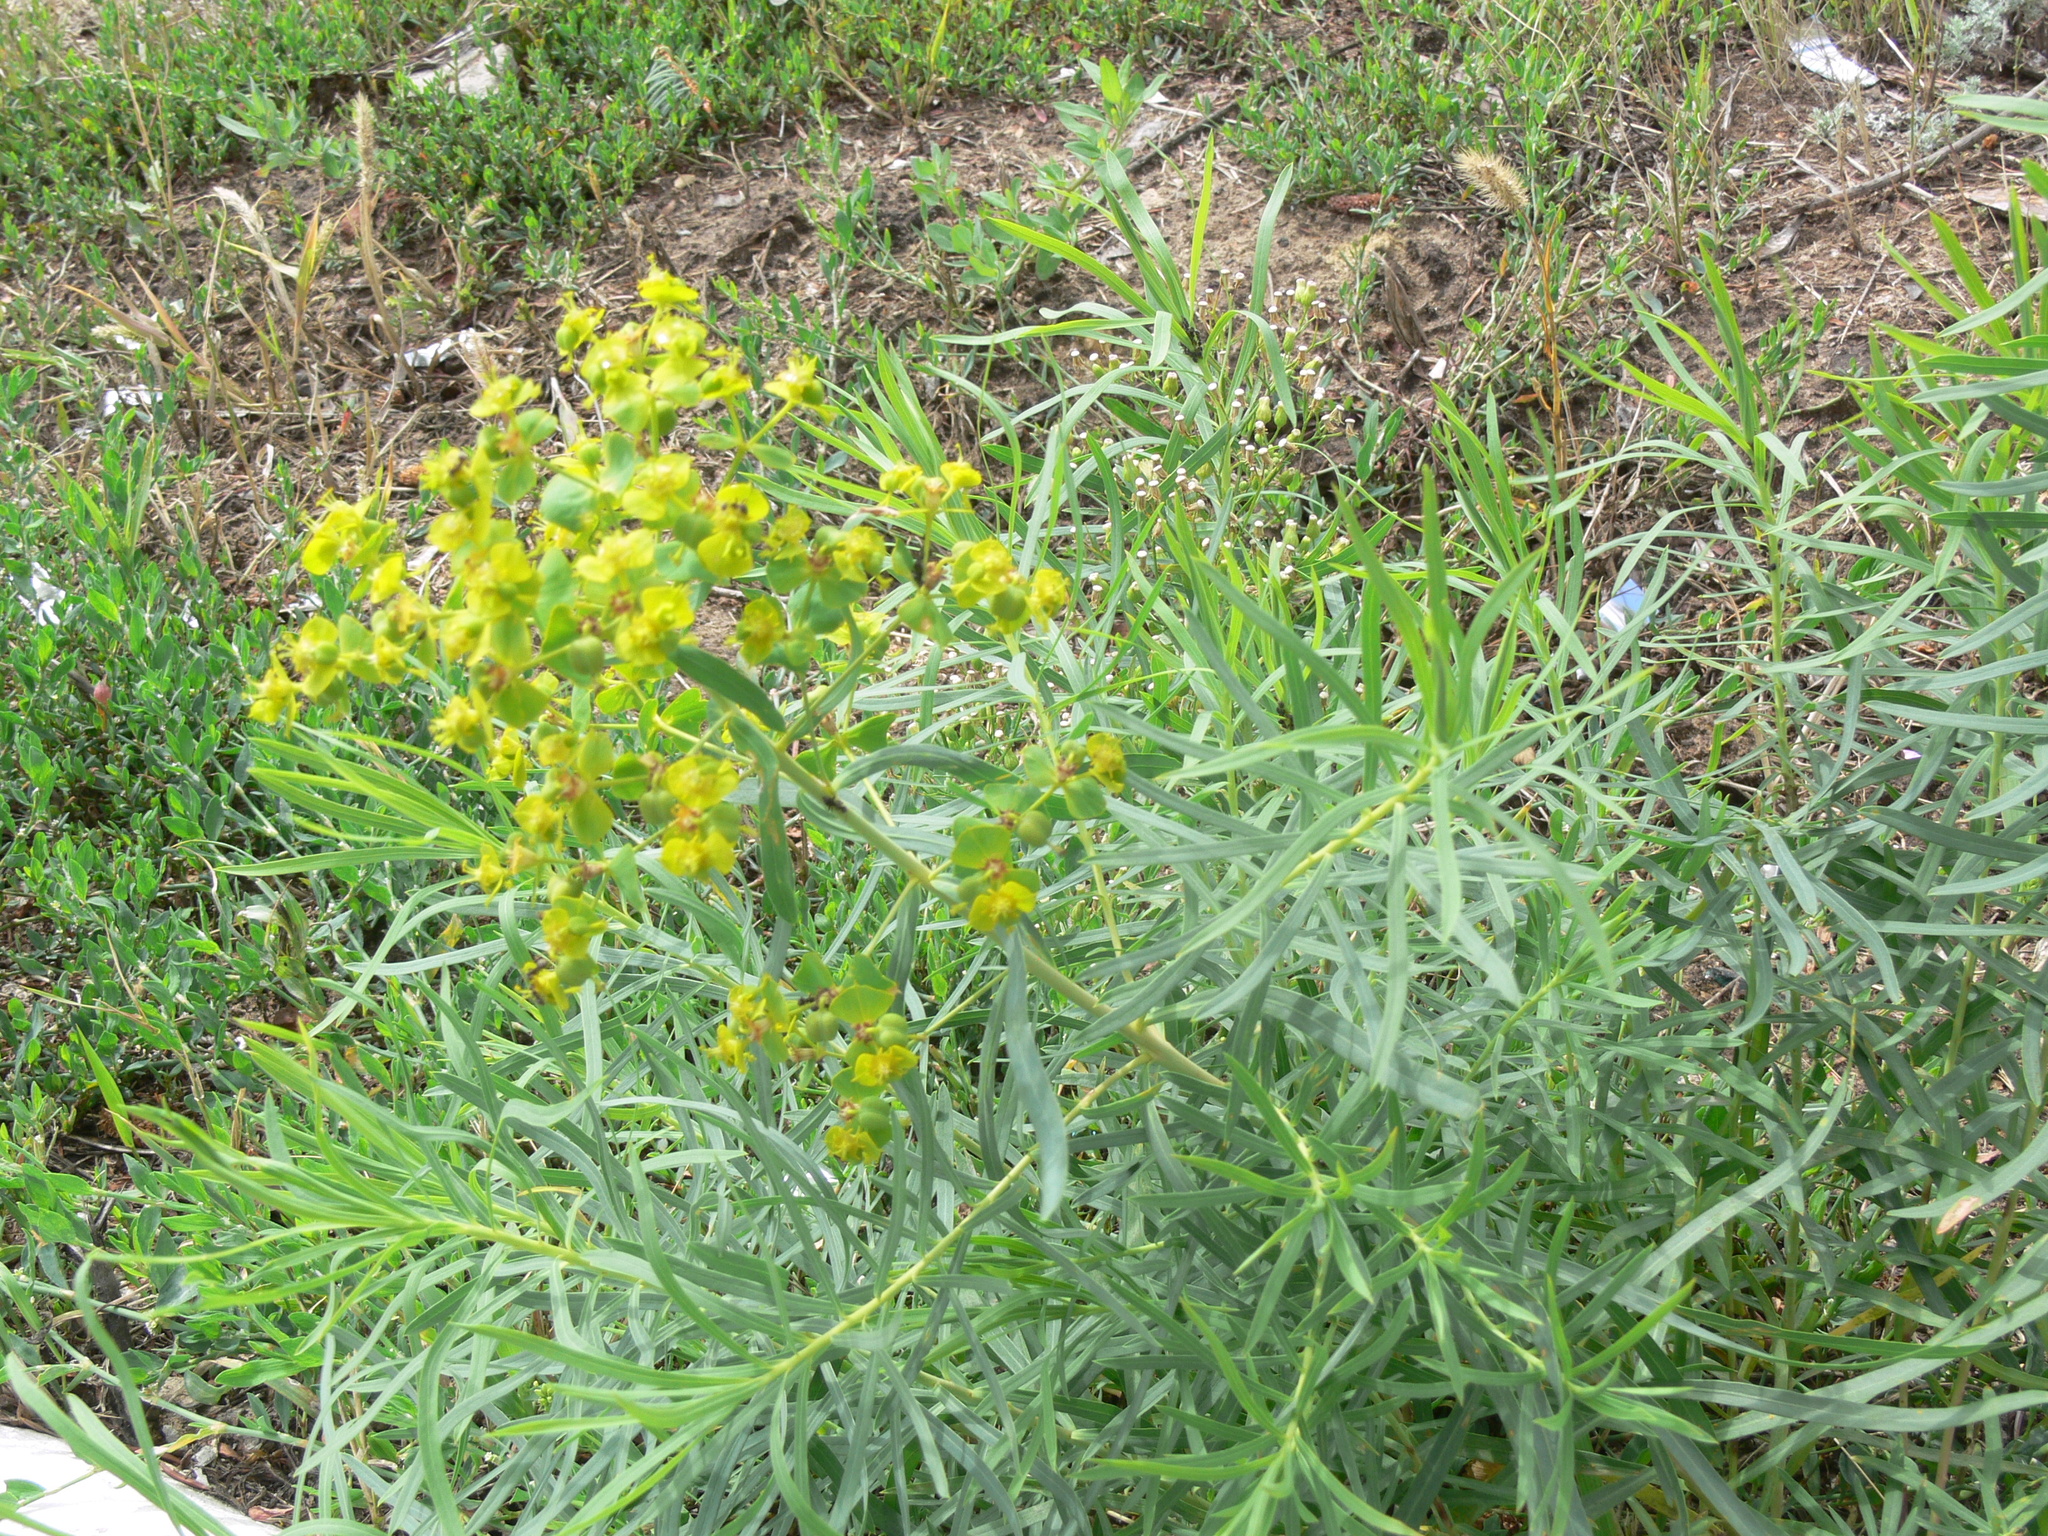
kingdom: Plantae
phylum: Tracheophyta
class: Magnoliopsida
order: Malpighiales
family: Euphorbiaceae
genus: Euphorbia
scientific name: Euphorbia virgata
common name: Leafy spurge
